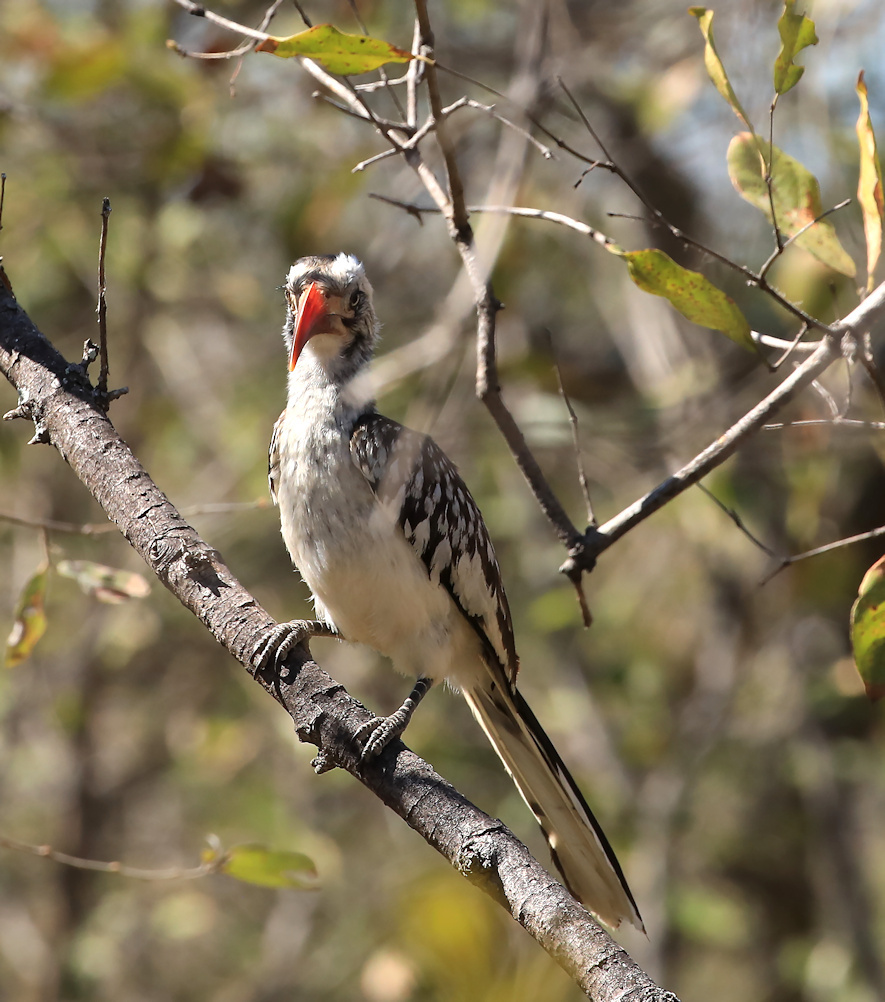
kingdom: Animalia
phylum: Chordata
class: Aves
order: Bucerotiformes
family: Bucerotidae
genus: Tockus
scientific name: Tockus rufirostris
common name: Southern red-billed hornbill
